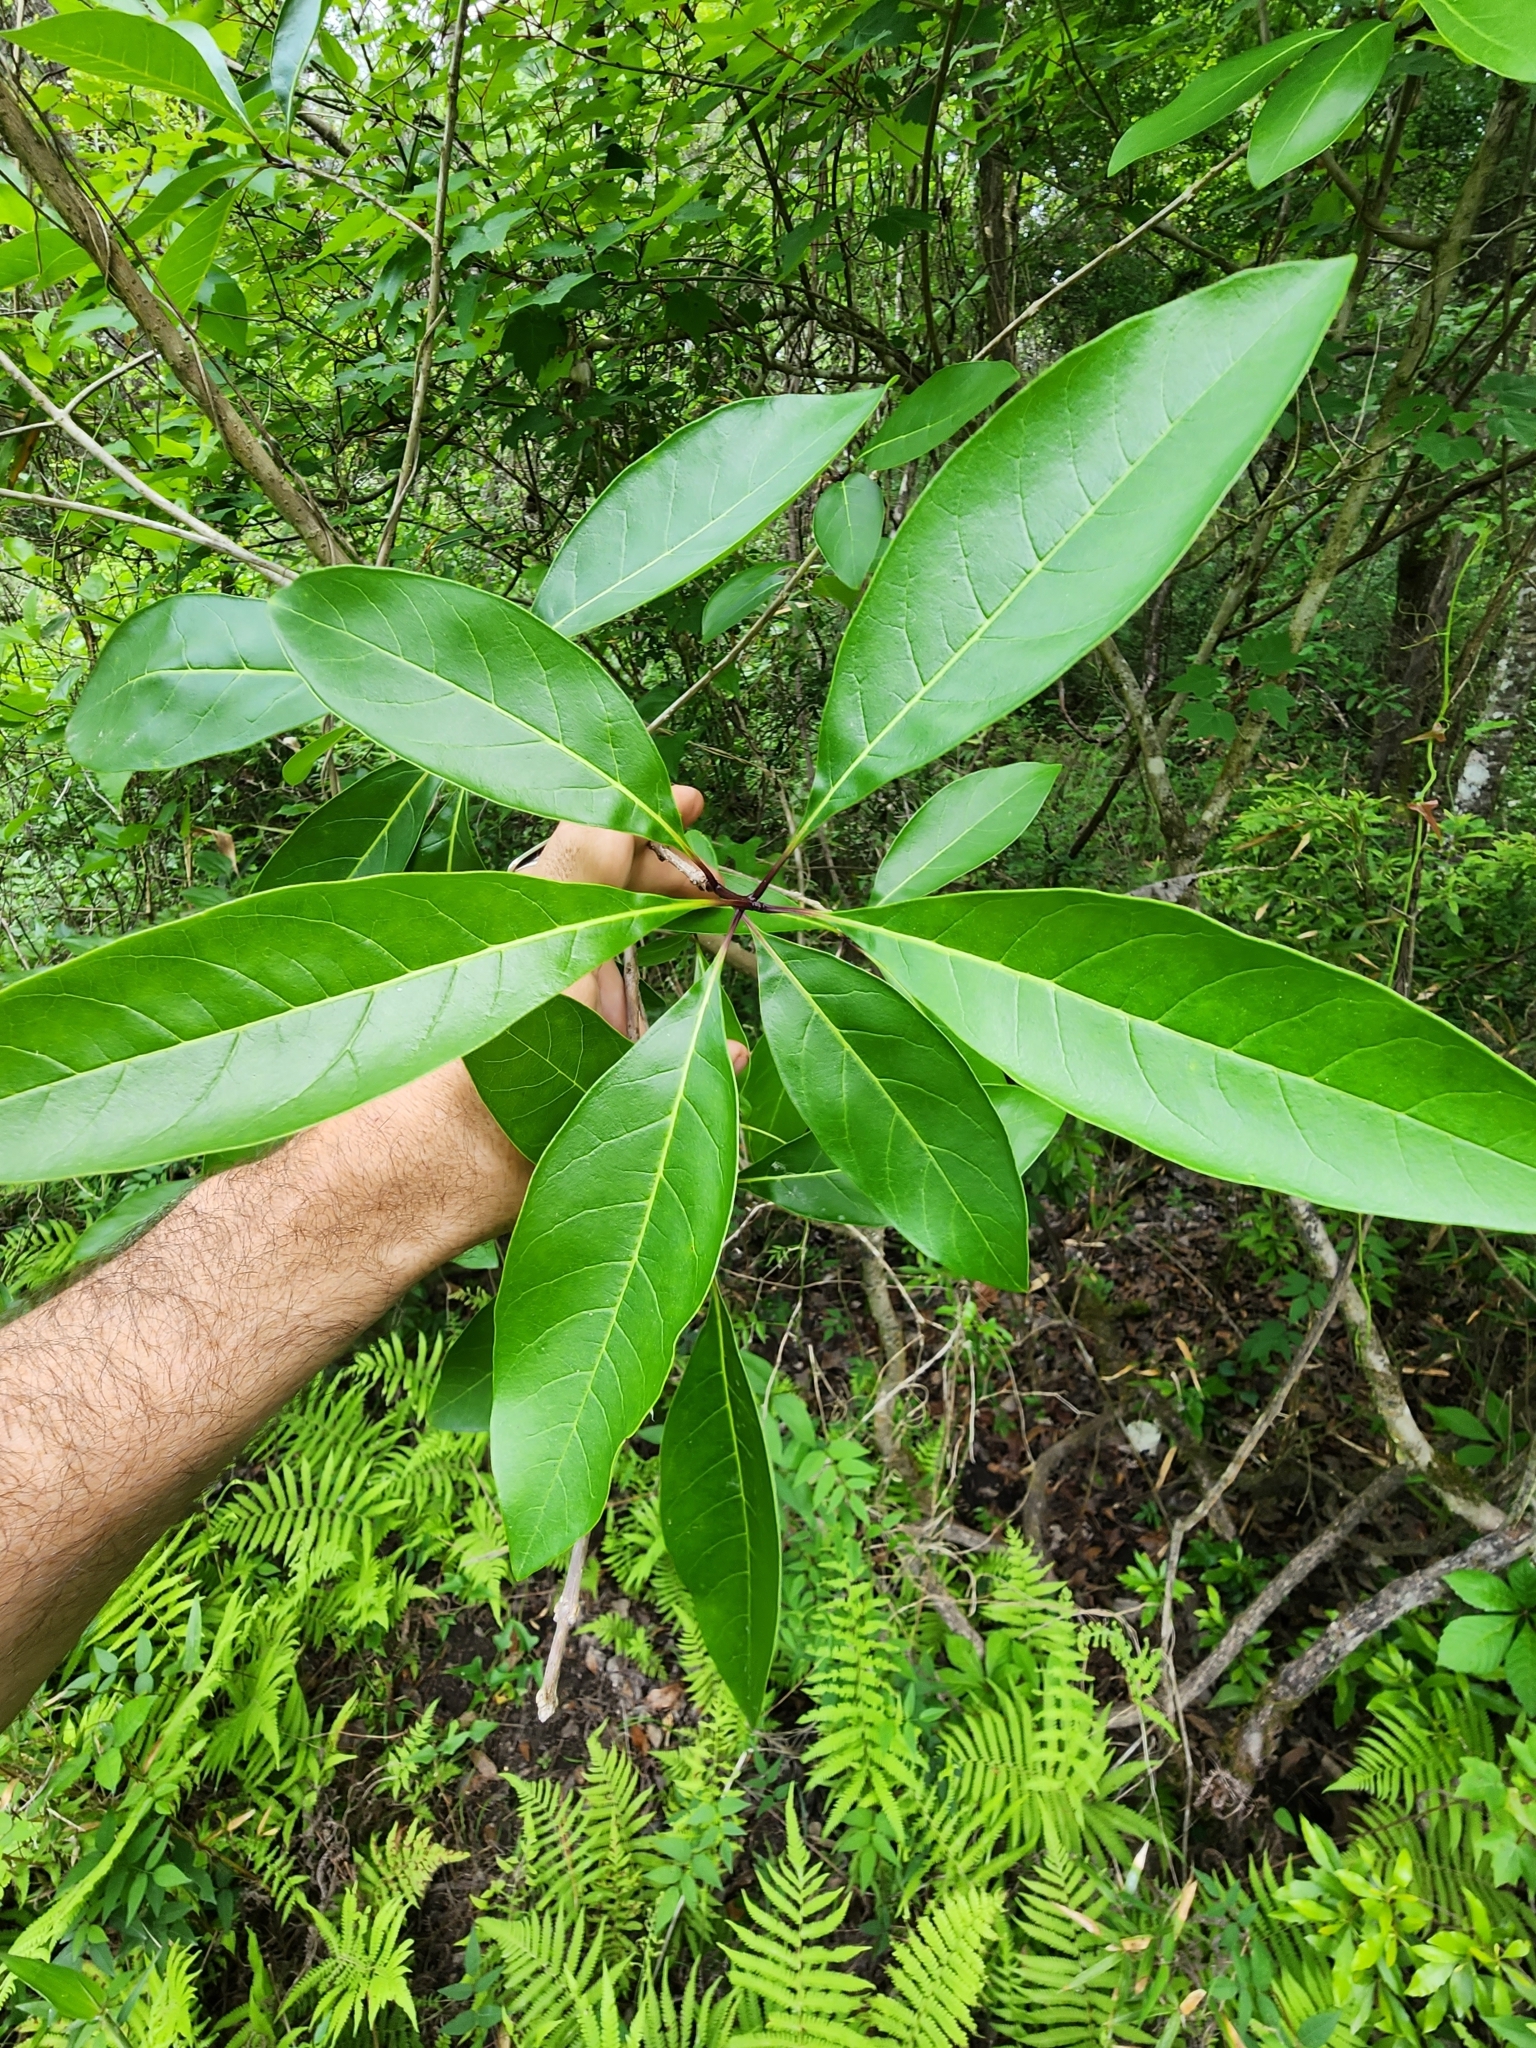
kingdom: Plantae
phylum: Tracheophyta
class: Magnoliopsida
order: Lamiales
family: Oleaceae
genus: Chionanthus
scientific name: Chionanthus virginicus
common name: American fringetree
